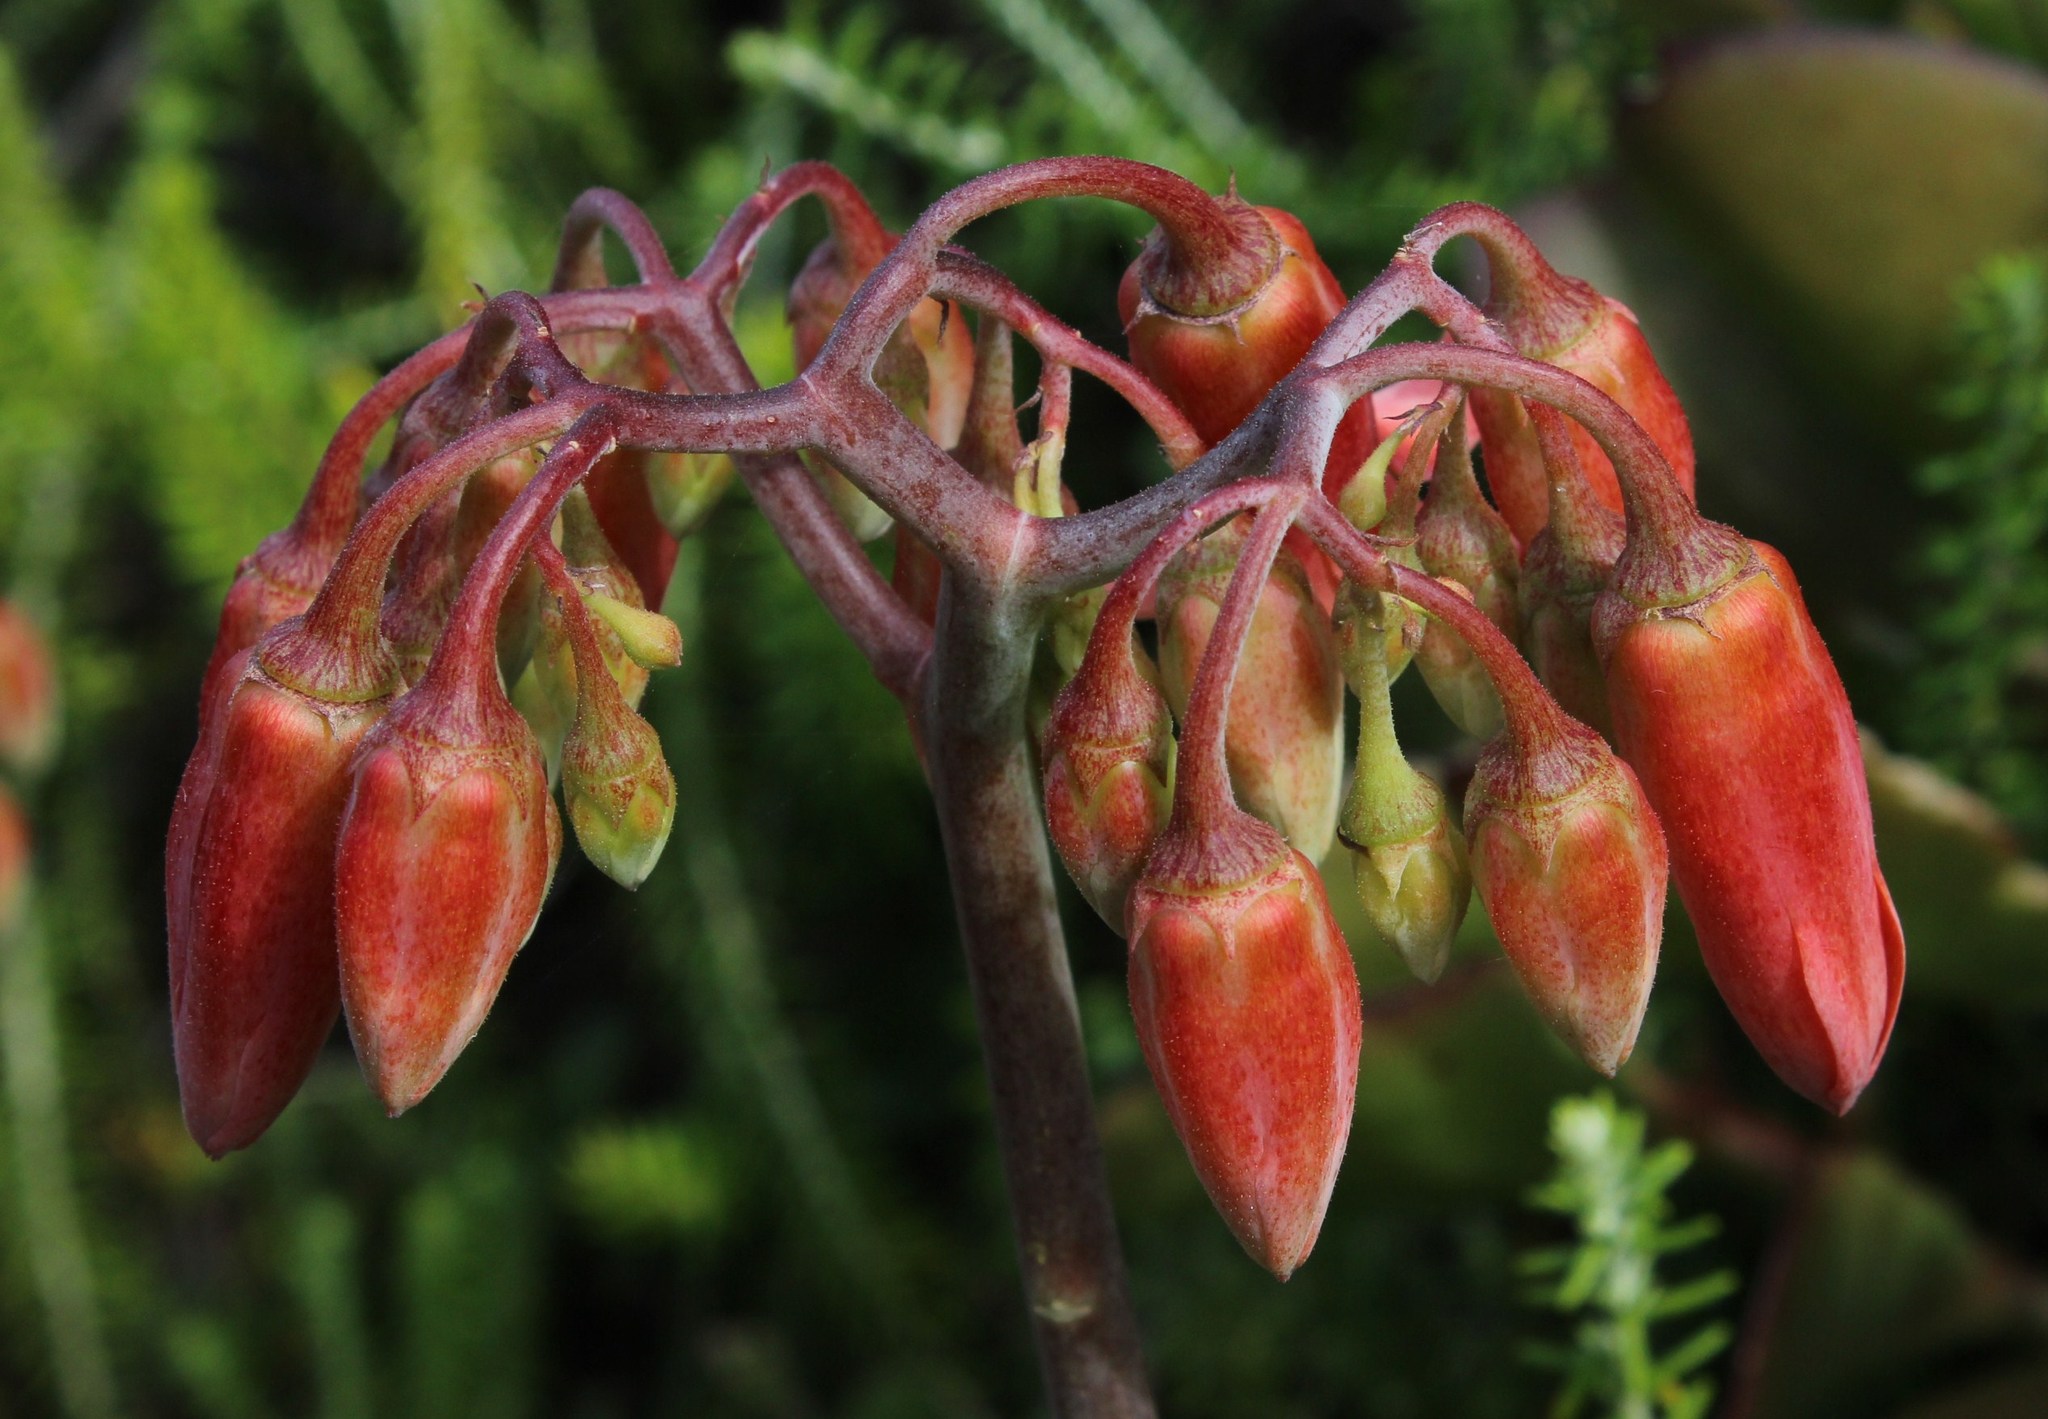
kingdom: Plantae
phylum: Tracheophyta
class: Magnoliopsida
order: Saxifragales
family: Crassulaceae
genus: Cotyledon
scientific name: Cotyledon orbiculata
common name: Pig's ear
